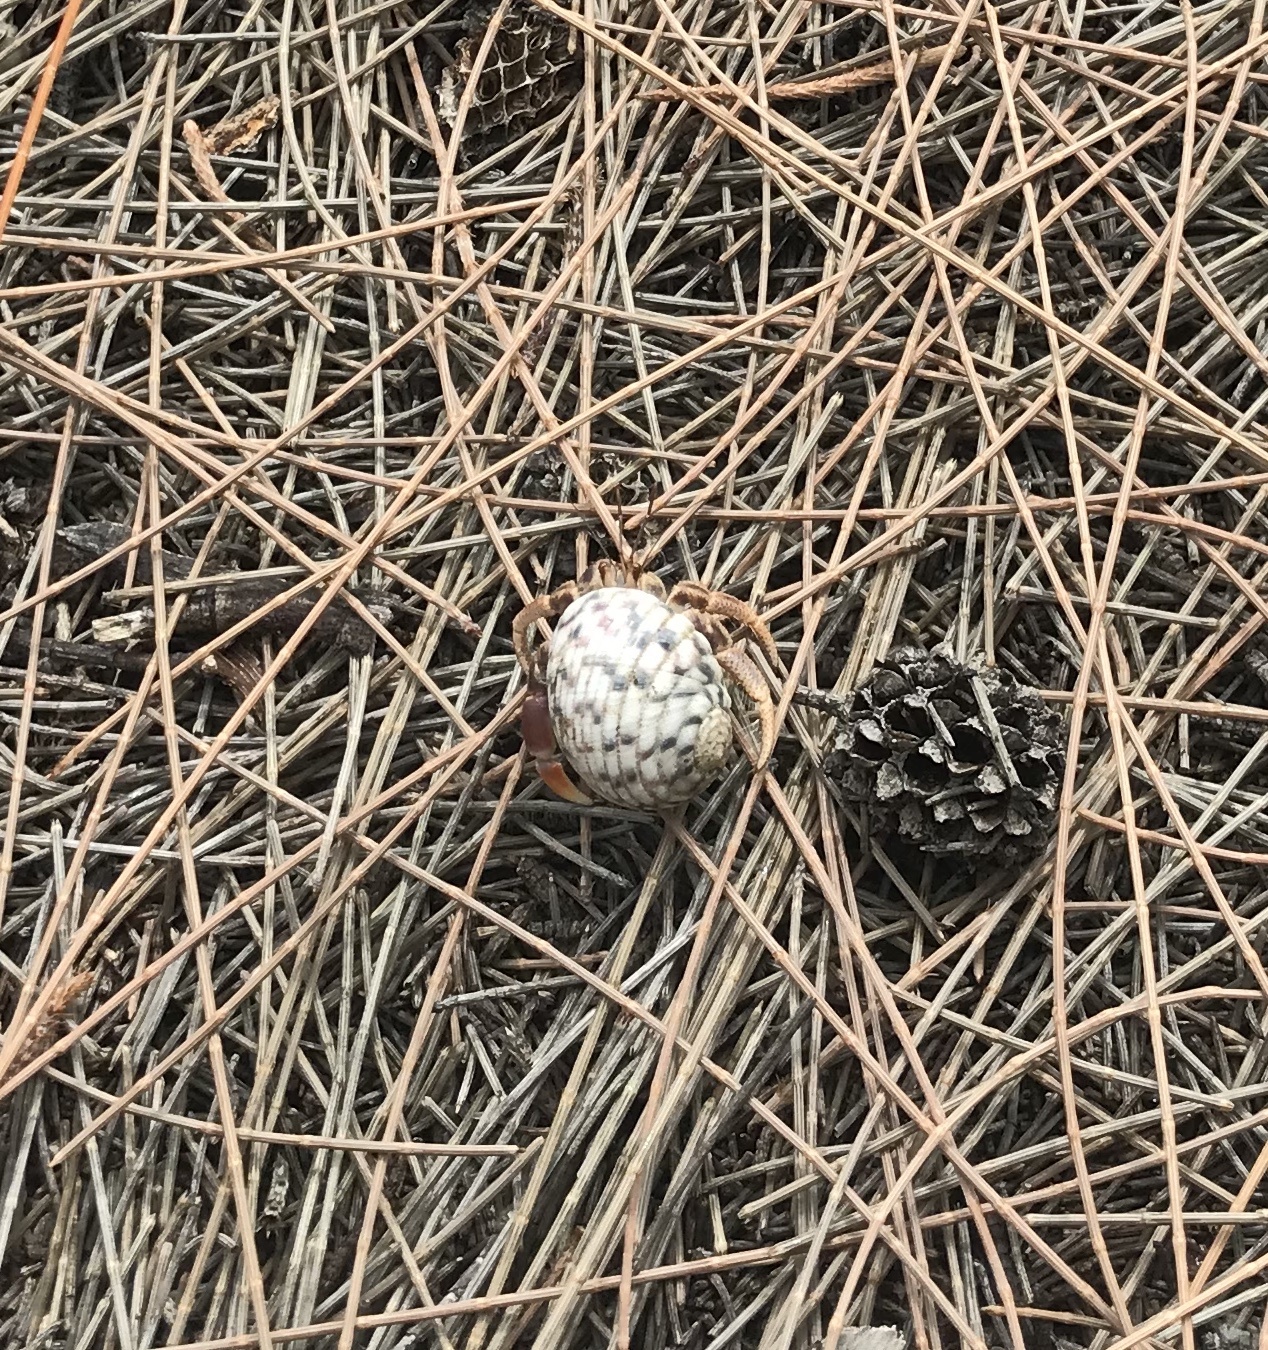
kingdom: Animalia
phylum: Arthropoda
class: Malacostraca
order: Decapoda
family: Coenobitidae
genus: Coenobita
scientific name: Coenobita clypeatus
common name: Caribbean hermit crab
